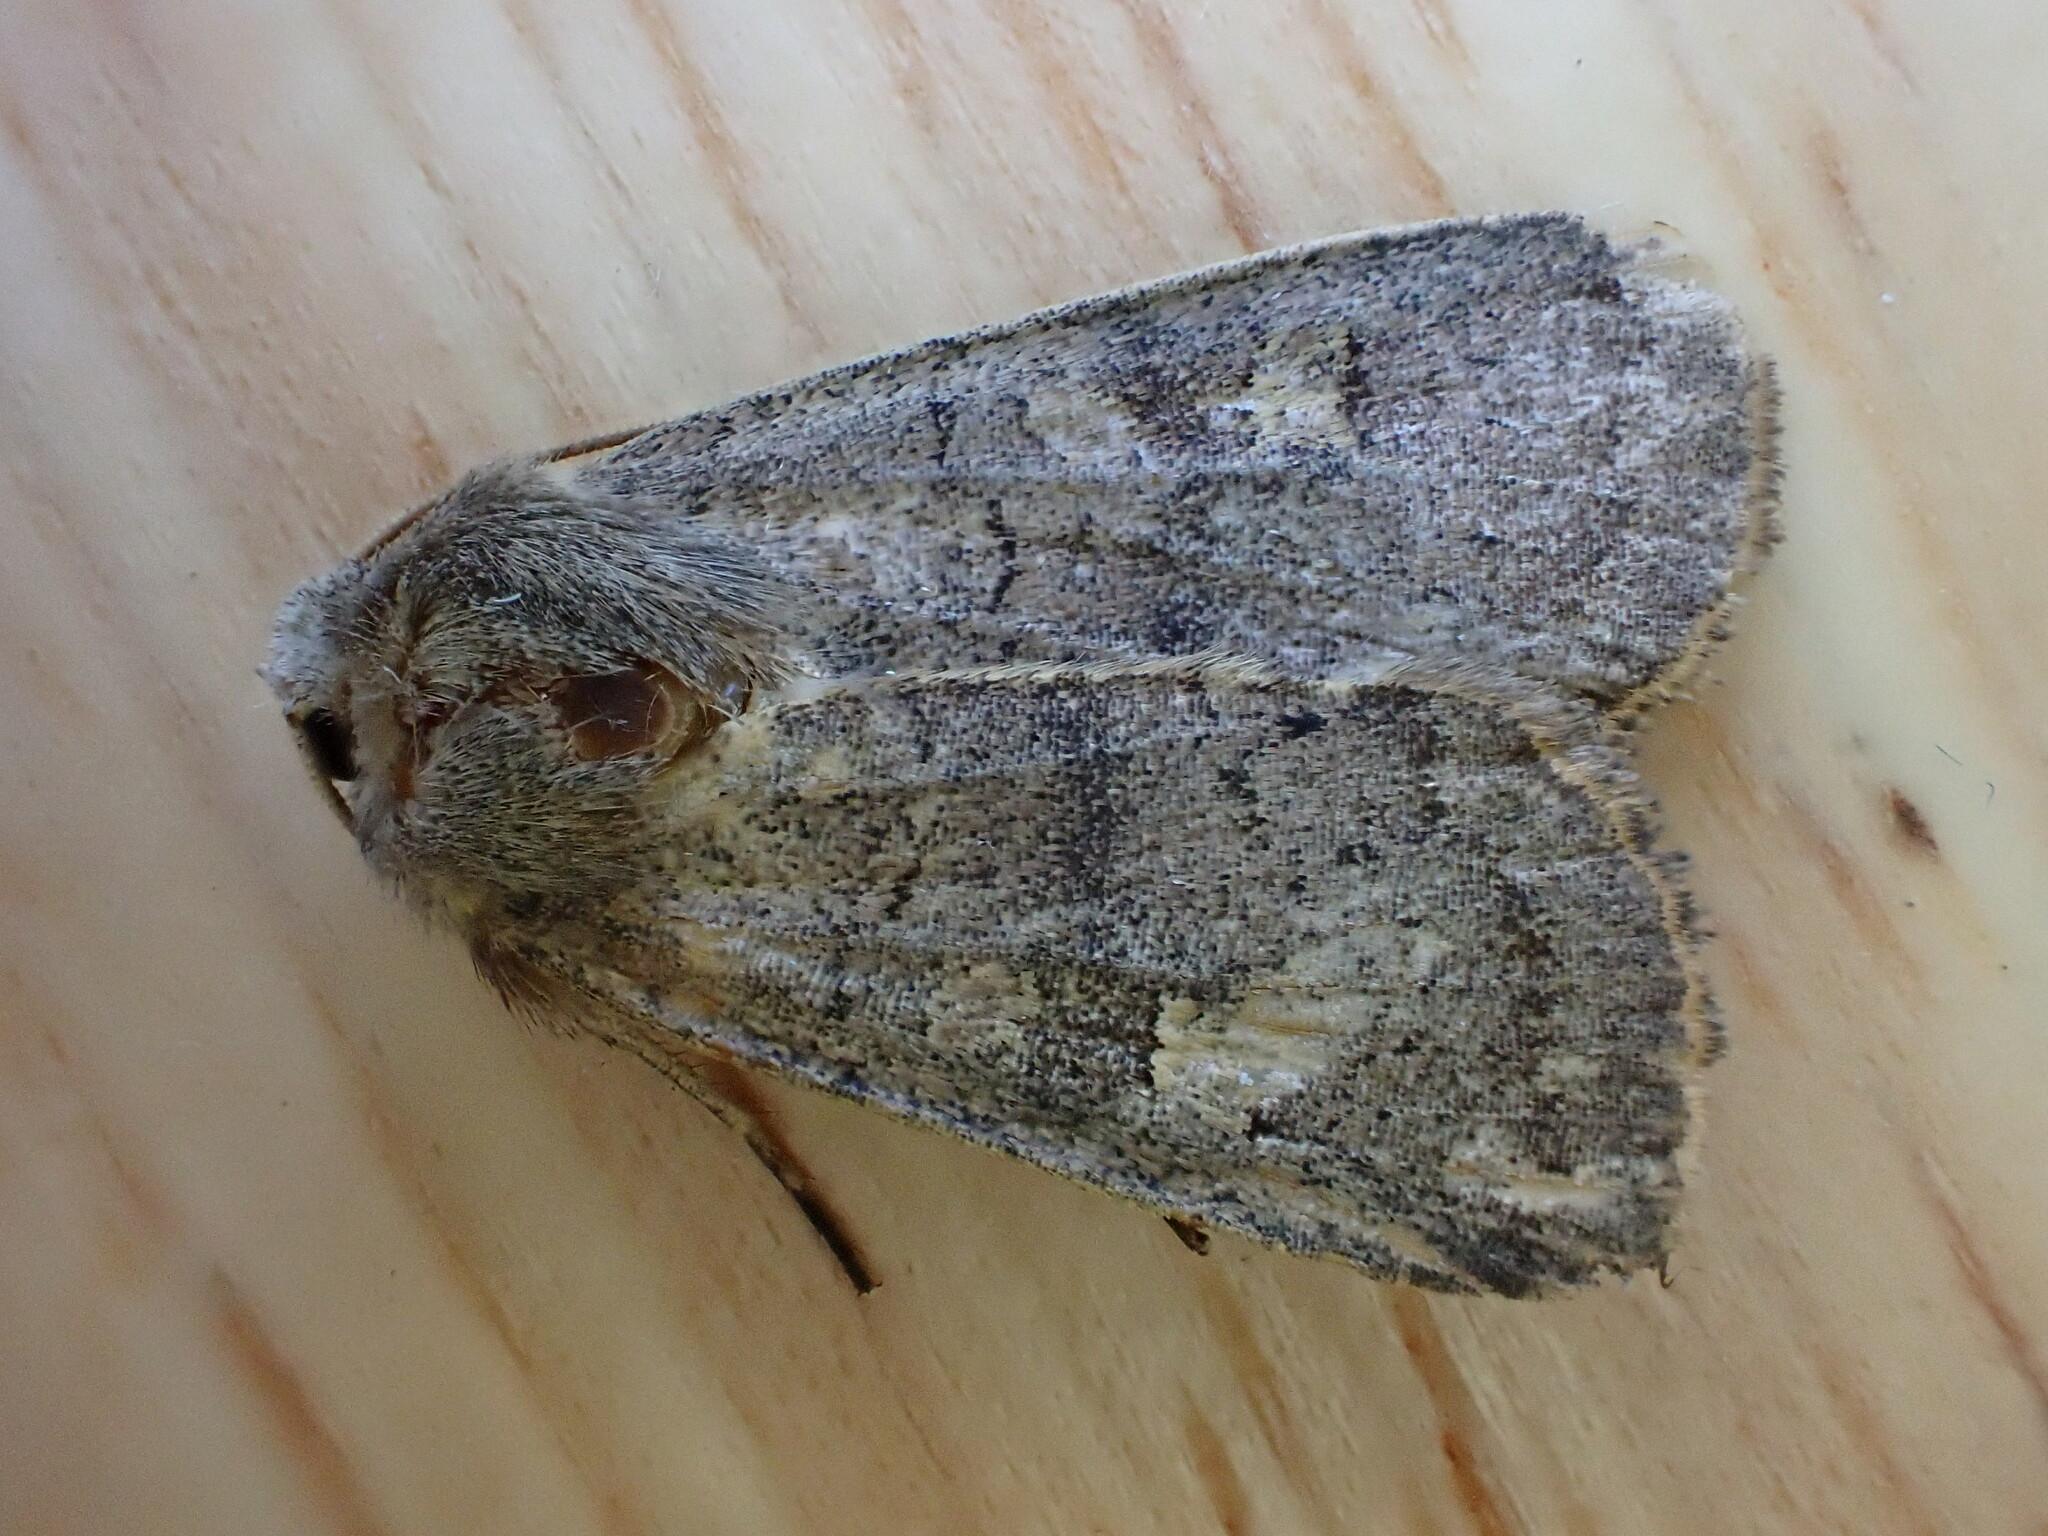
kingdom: Animalia
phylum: Arthropoda
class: Insecta
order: Lepidoptera
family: Noctuidae
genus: Xestia
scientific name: Xestia xanthographa
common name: Square-spot rustic
